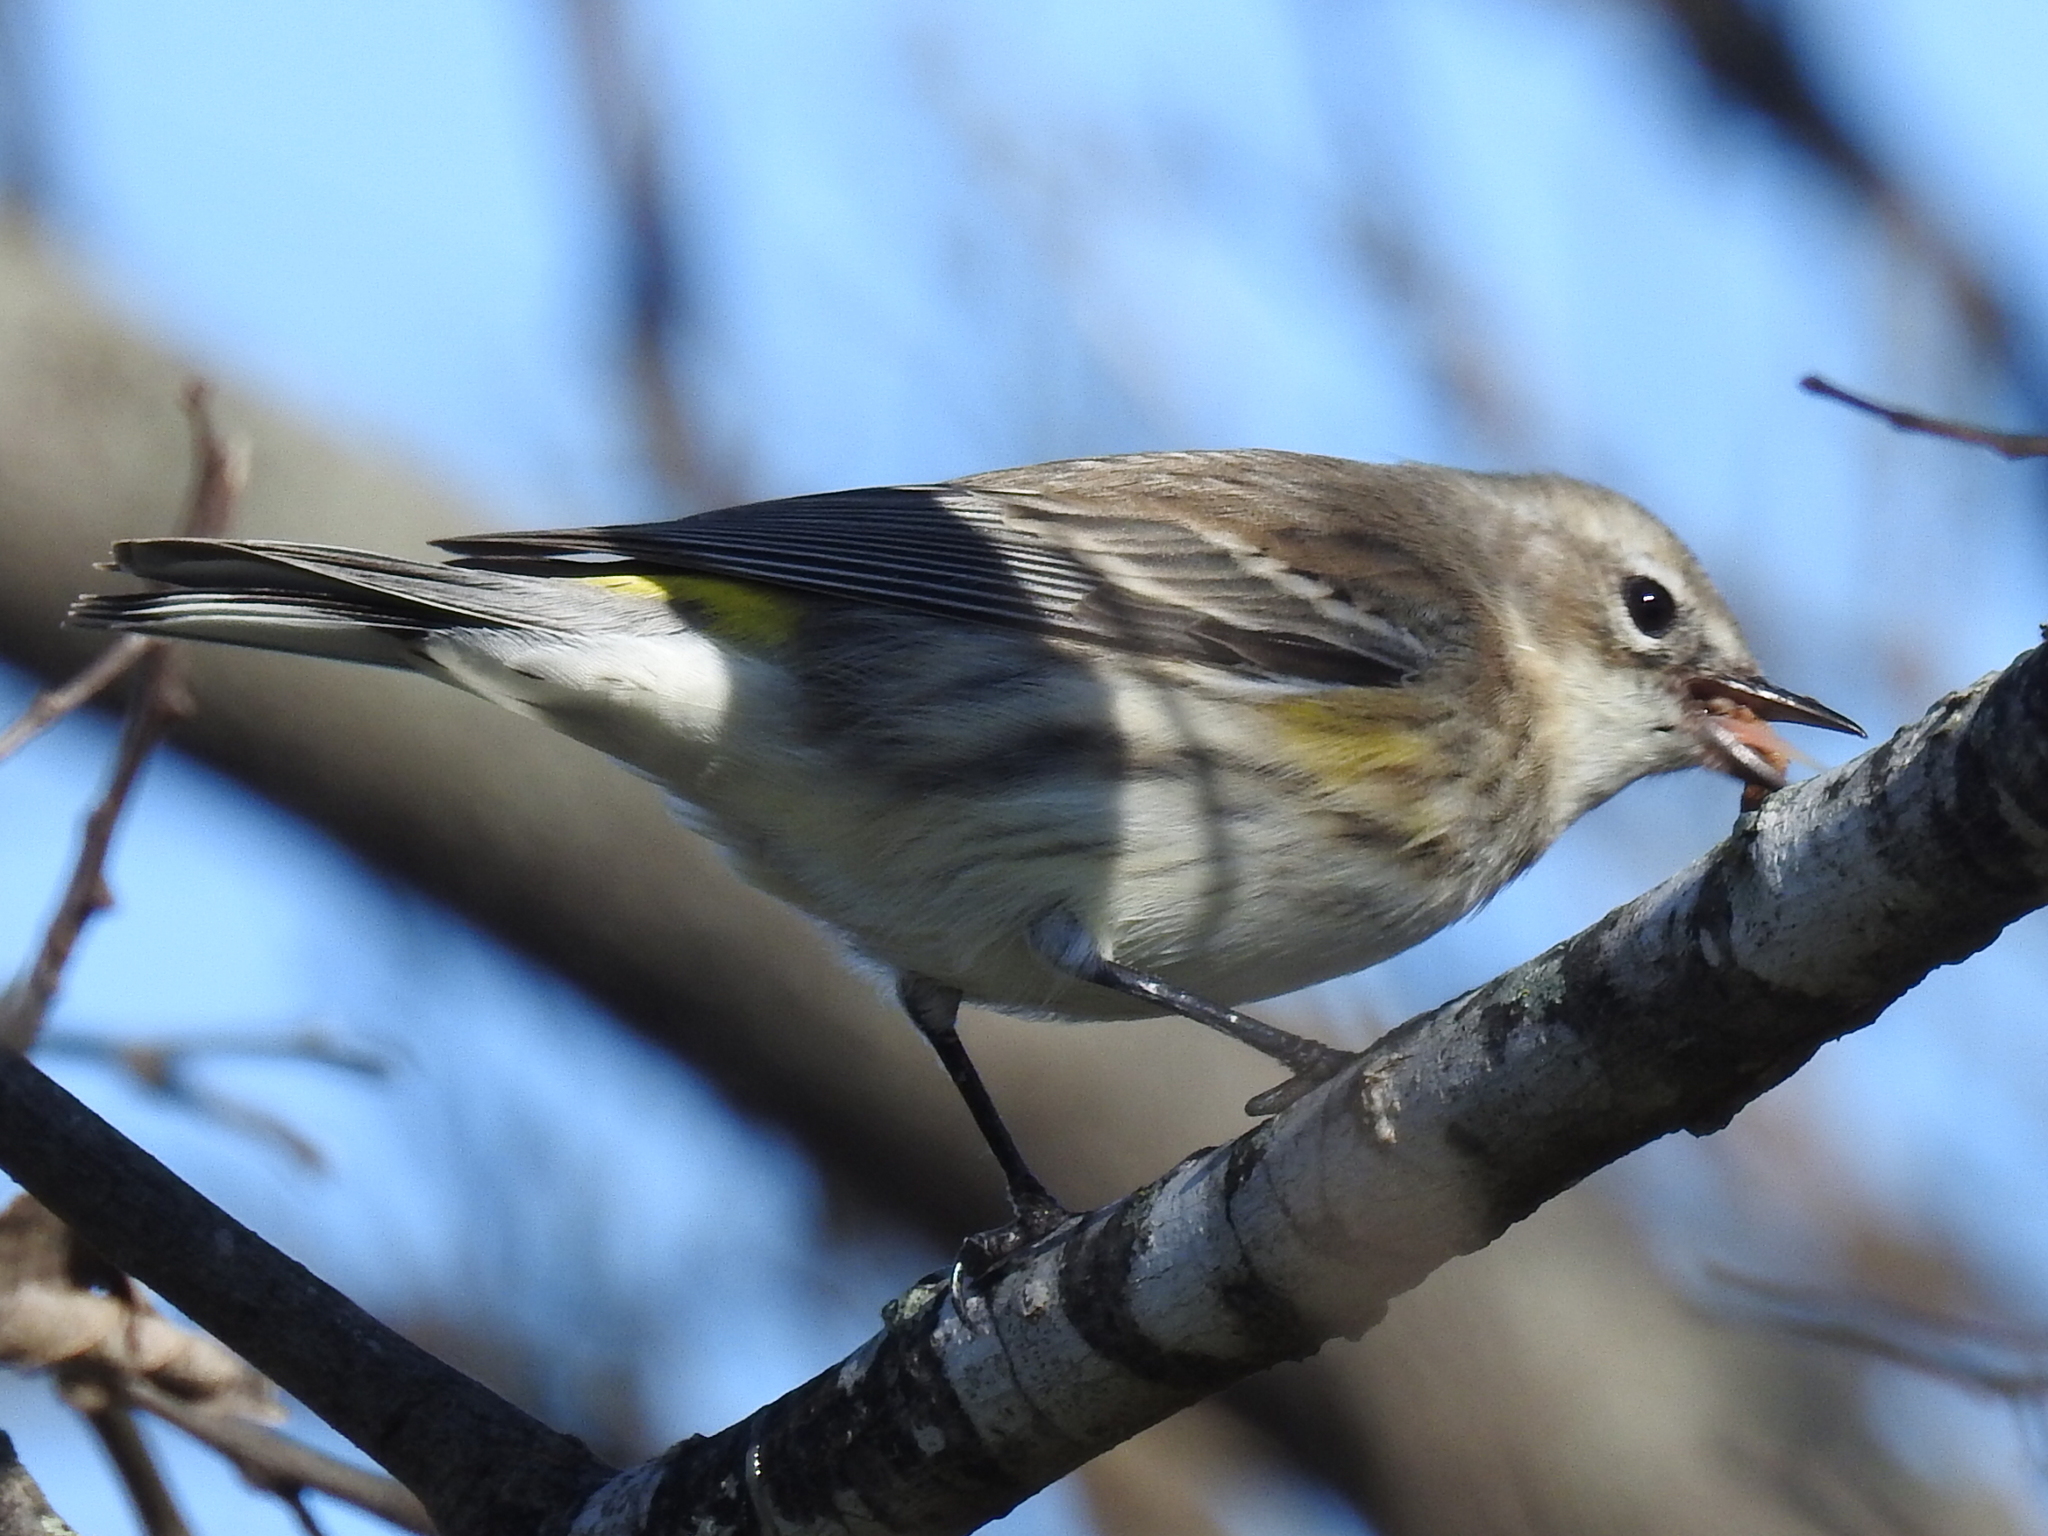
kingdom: Animalia
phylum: Chordata
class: Aves
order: Passeriformes
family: Parulidae
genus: Setophaga
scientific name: Setophaga coronata
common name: Myrtle warbler
